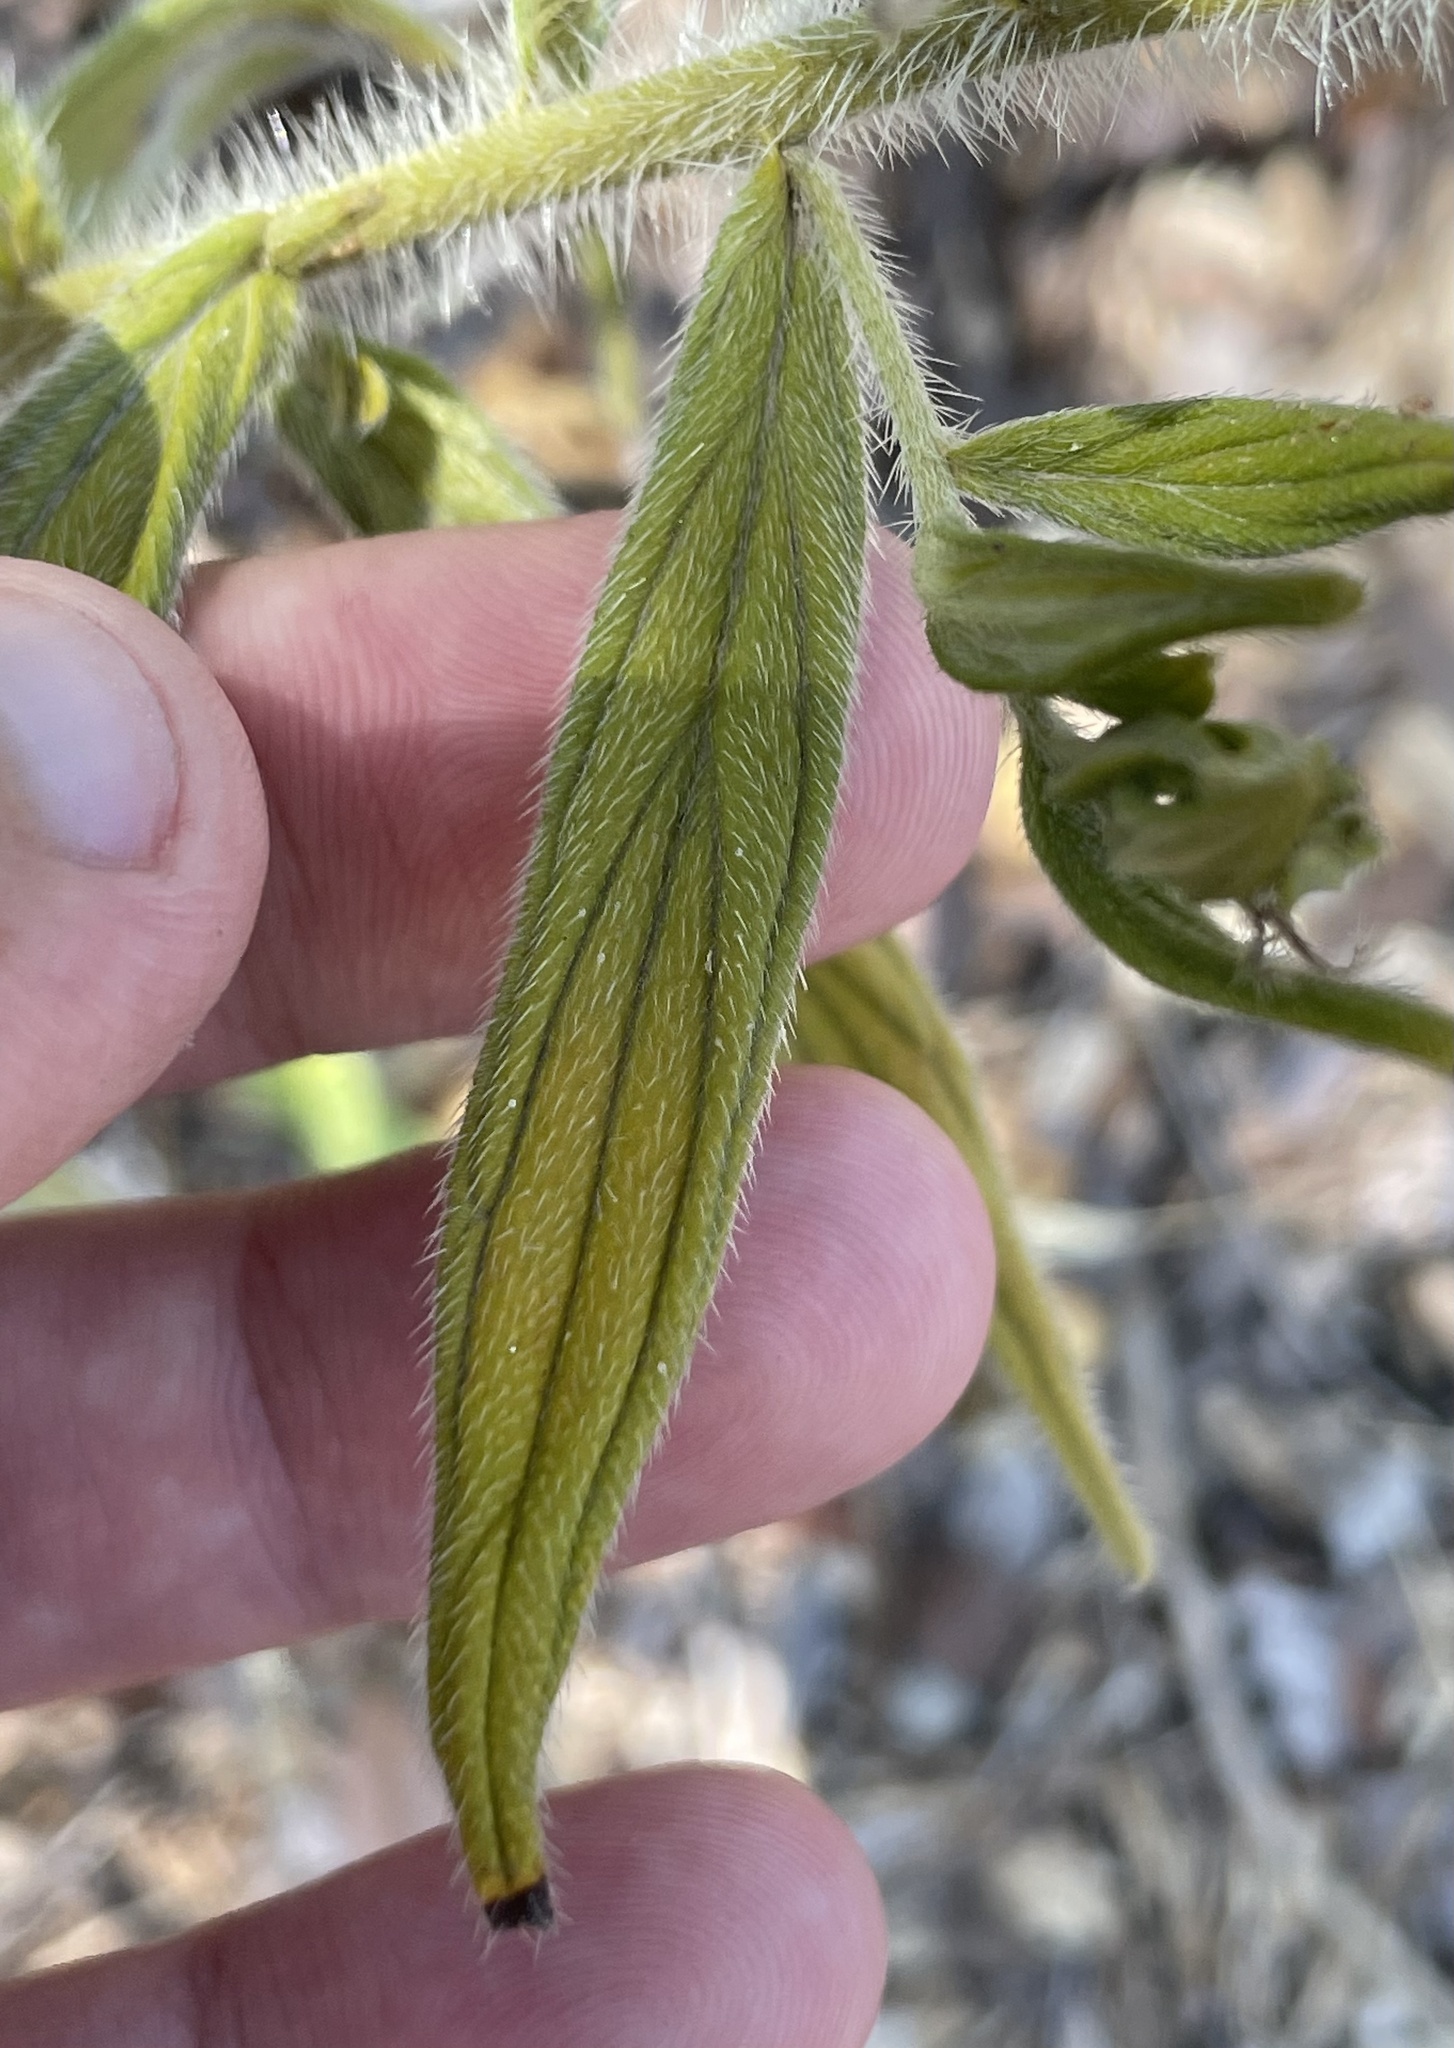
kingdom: Plantae
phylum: Tracheophyta
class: Magnoliopsida
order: Boraginales
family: Boraginaceae
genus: Lithospermum
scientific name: Lithospermum caroliniense
